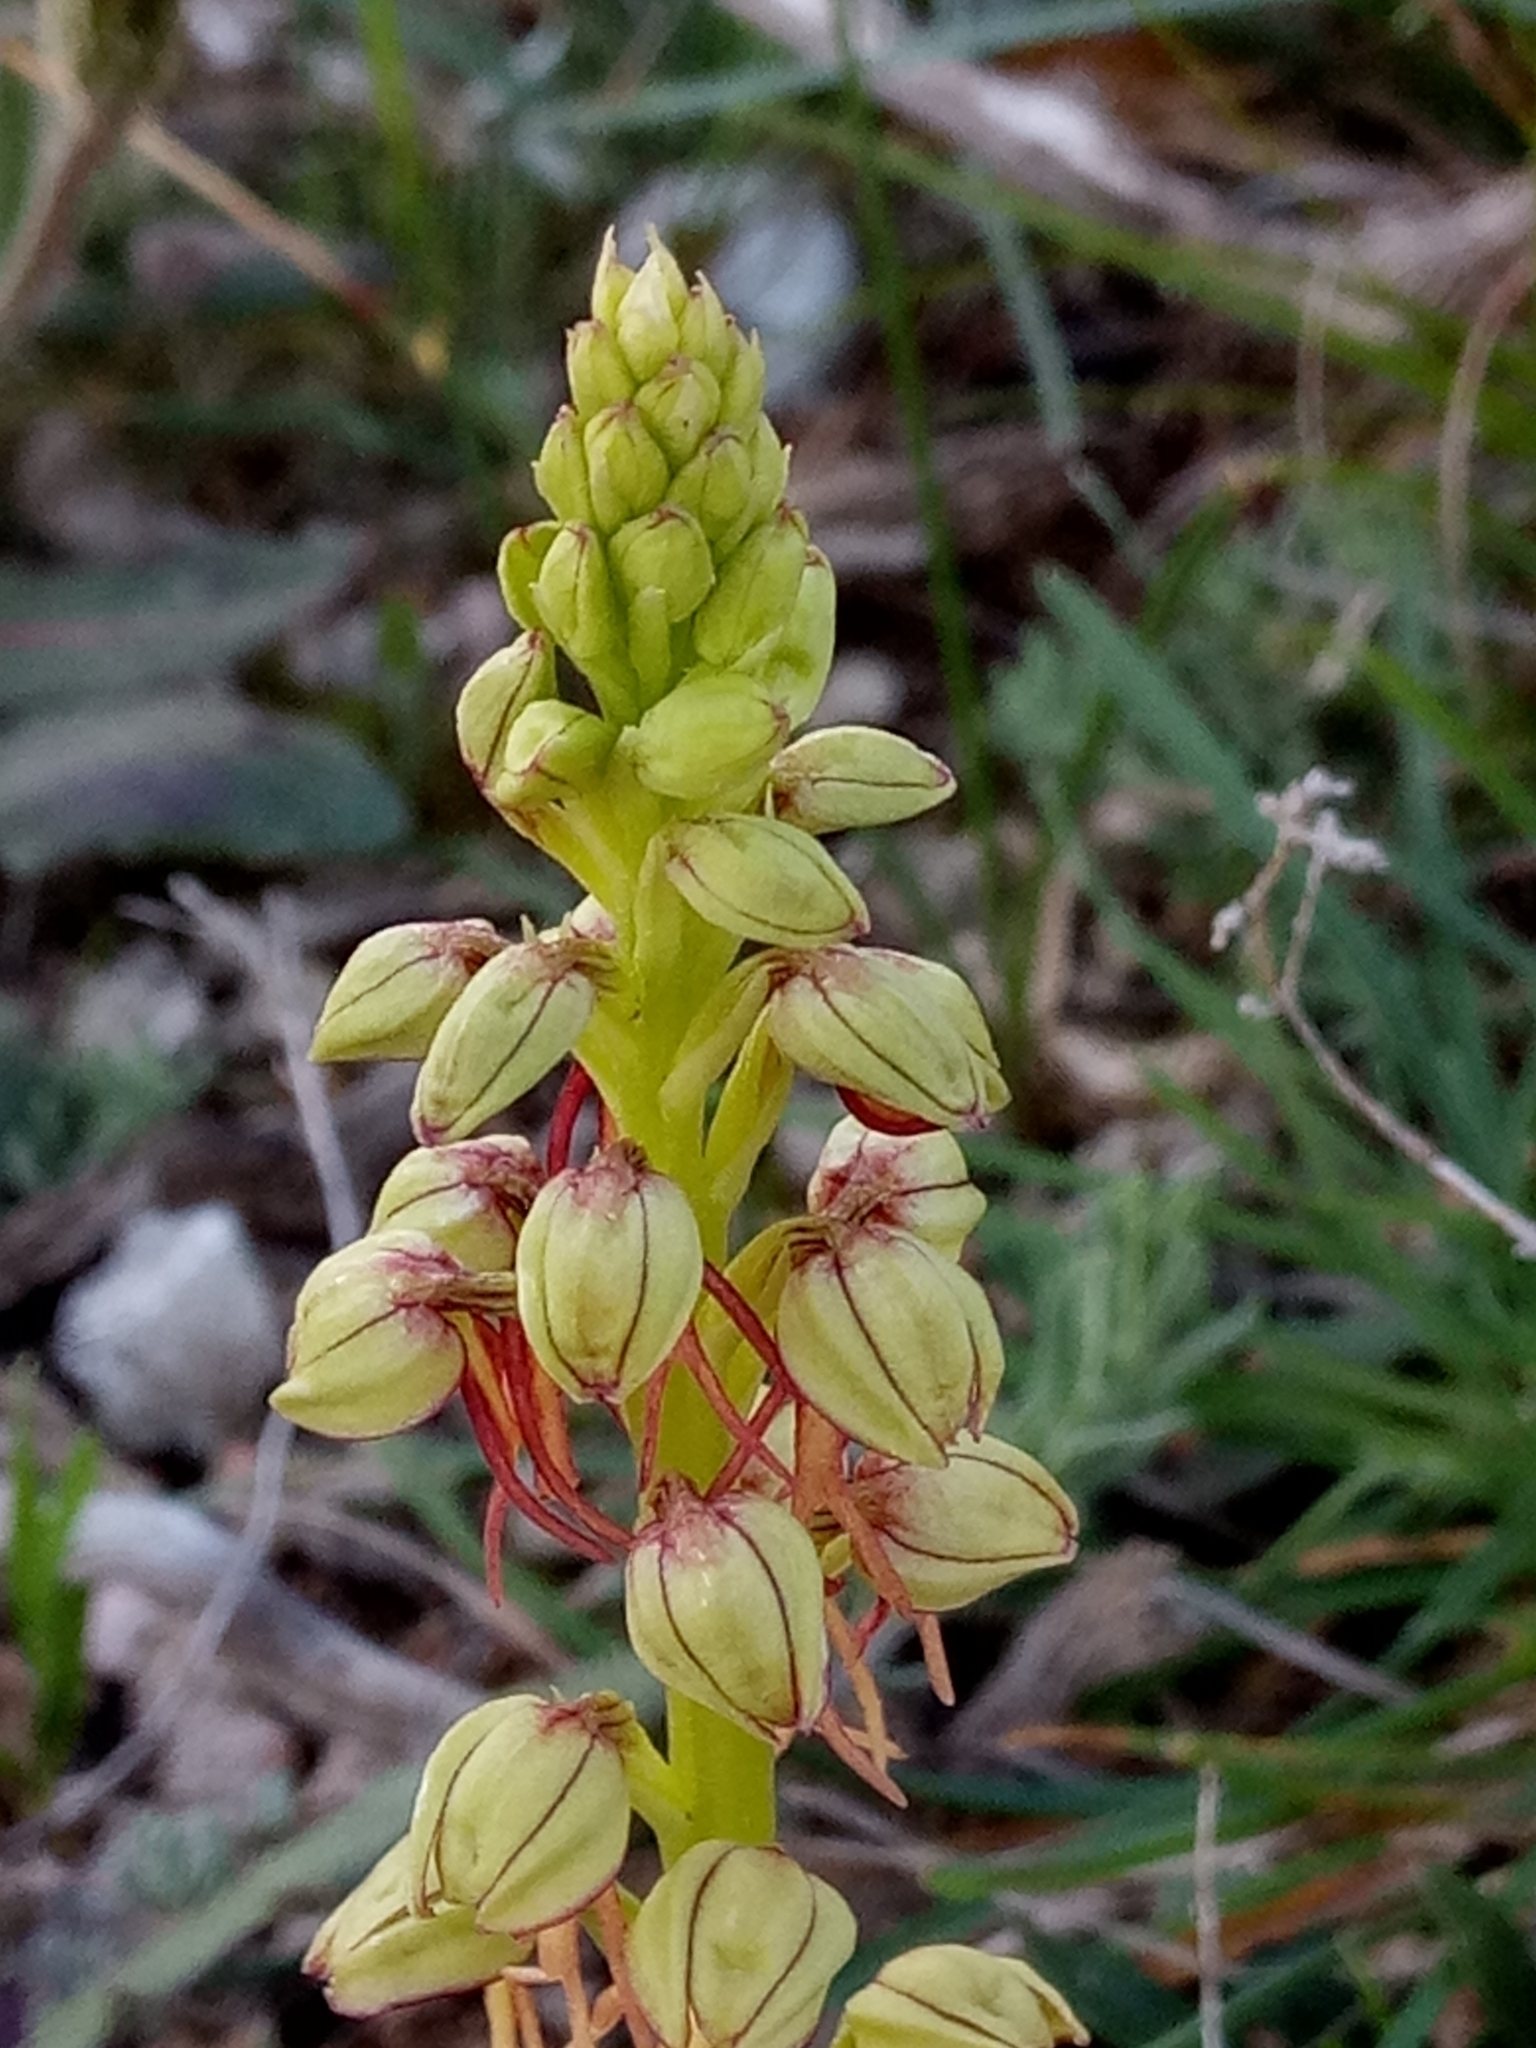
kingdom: Plantae
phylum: Tracheophyta
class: Liliopsida
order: Asparagales
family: Orchidaceae
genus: Orchis
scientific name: Orchis anthropophora
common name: Man orchid
